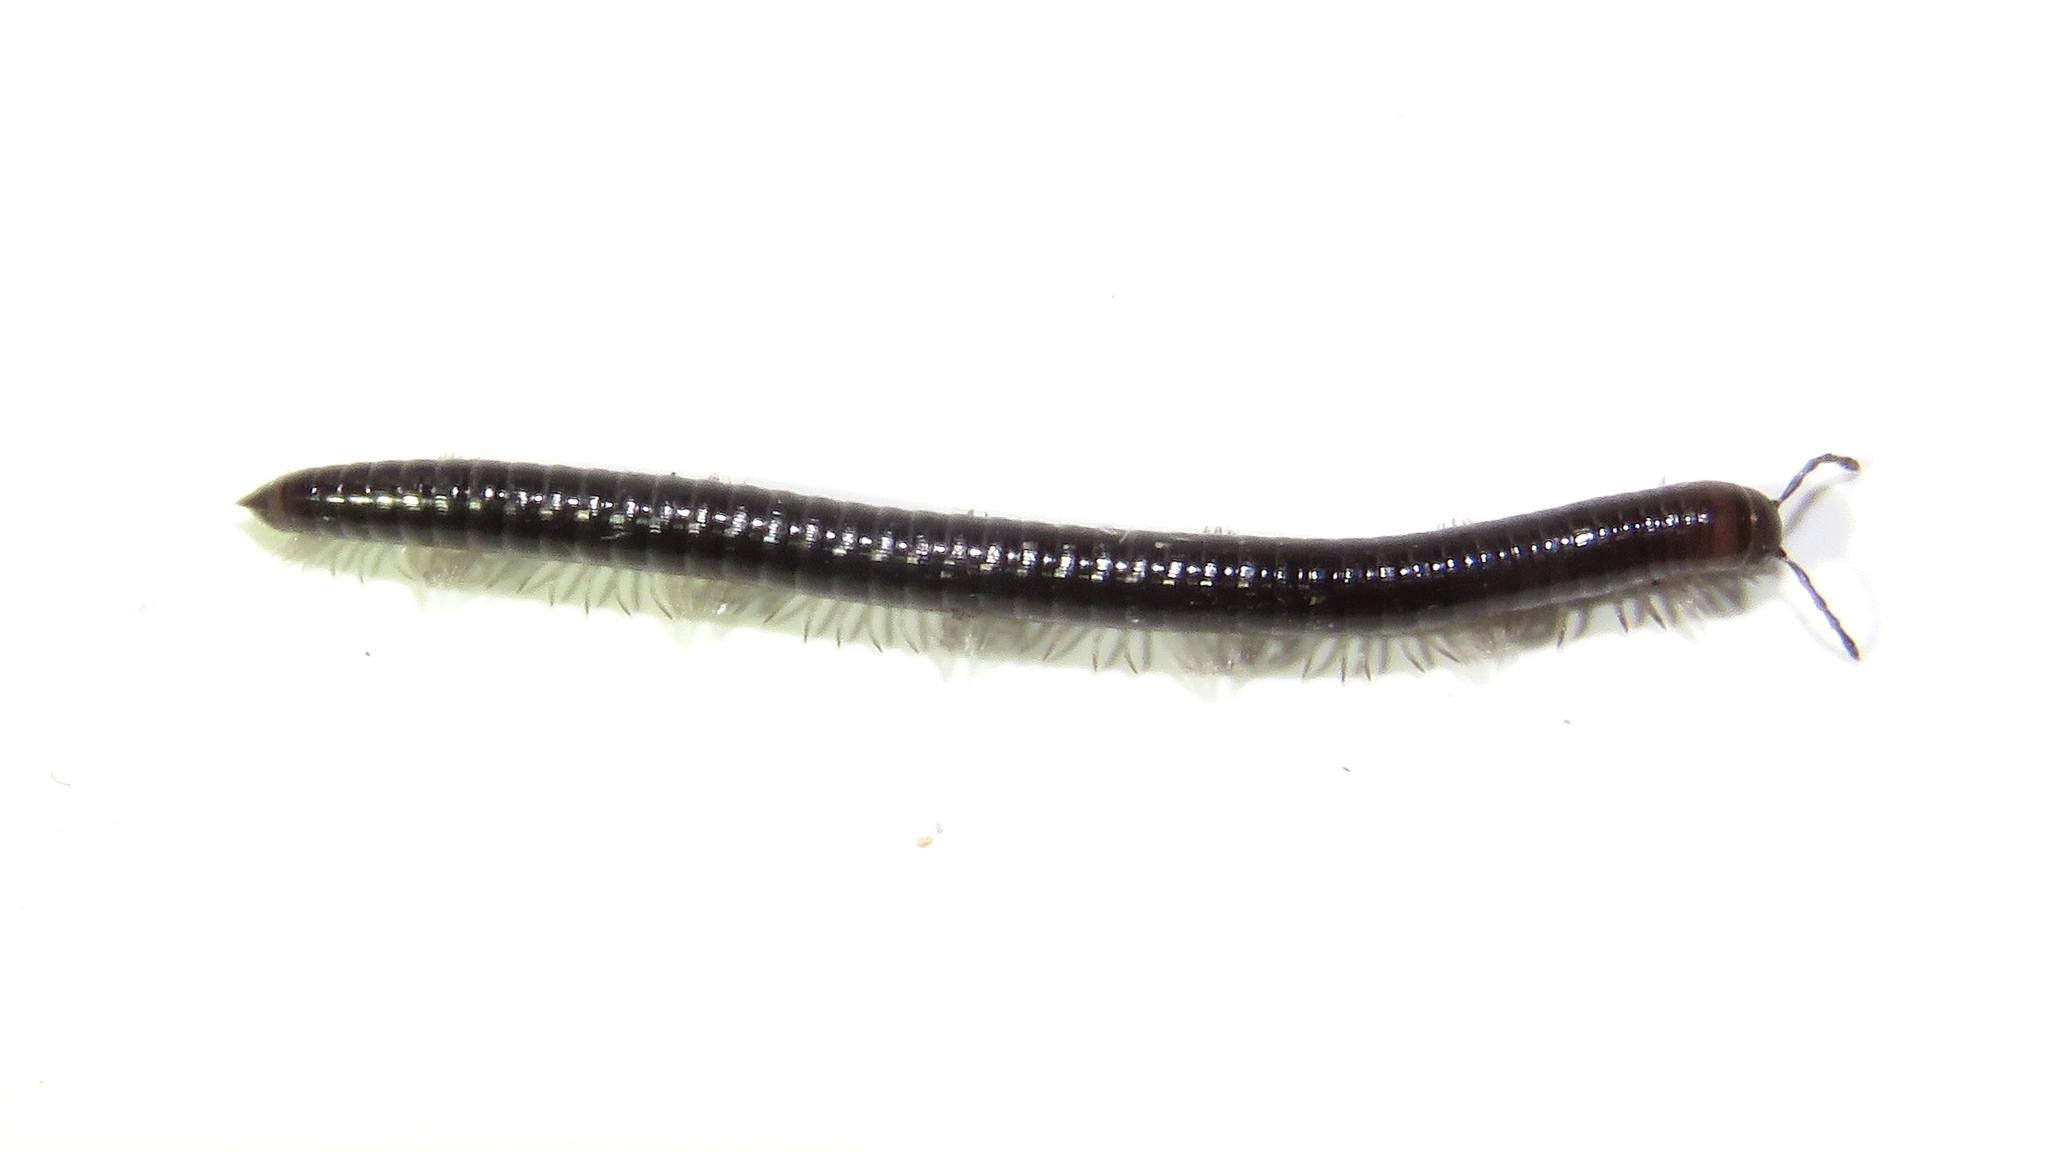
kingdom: Animalia
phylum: Arthropoda
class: Diplopoda
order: Julida
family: Julidae
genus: Ophyiulus
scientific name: Ophyiulus pilosus
